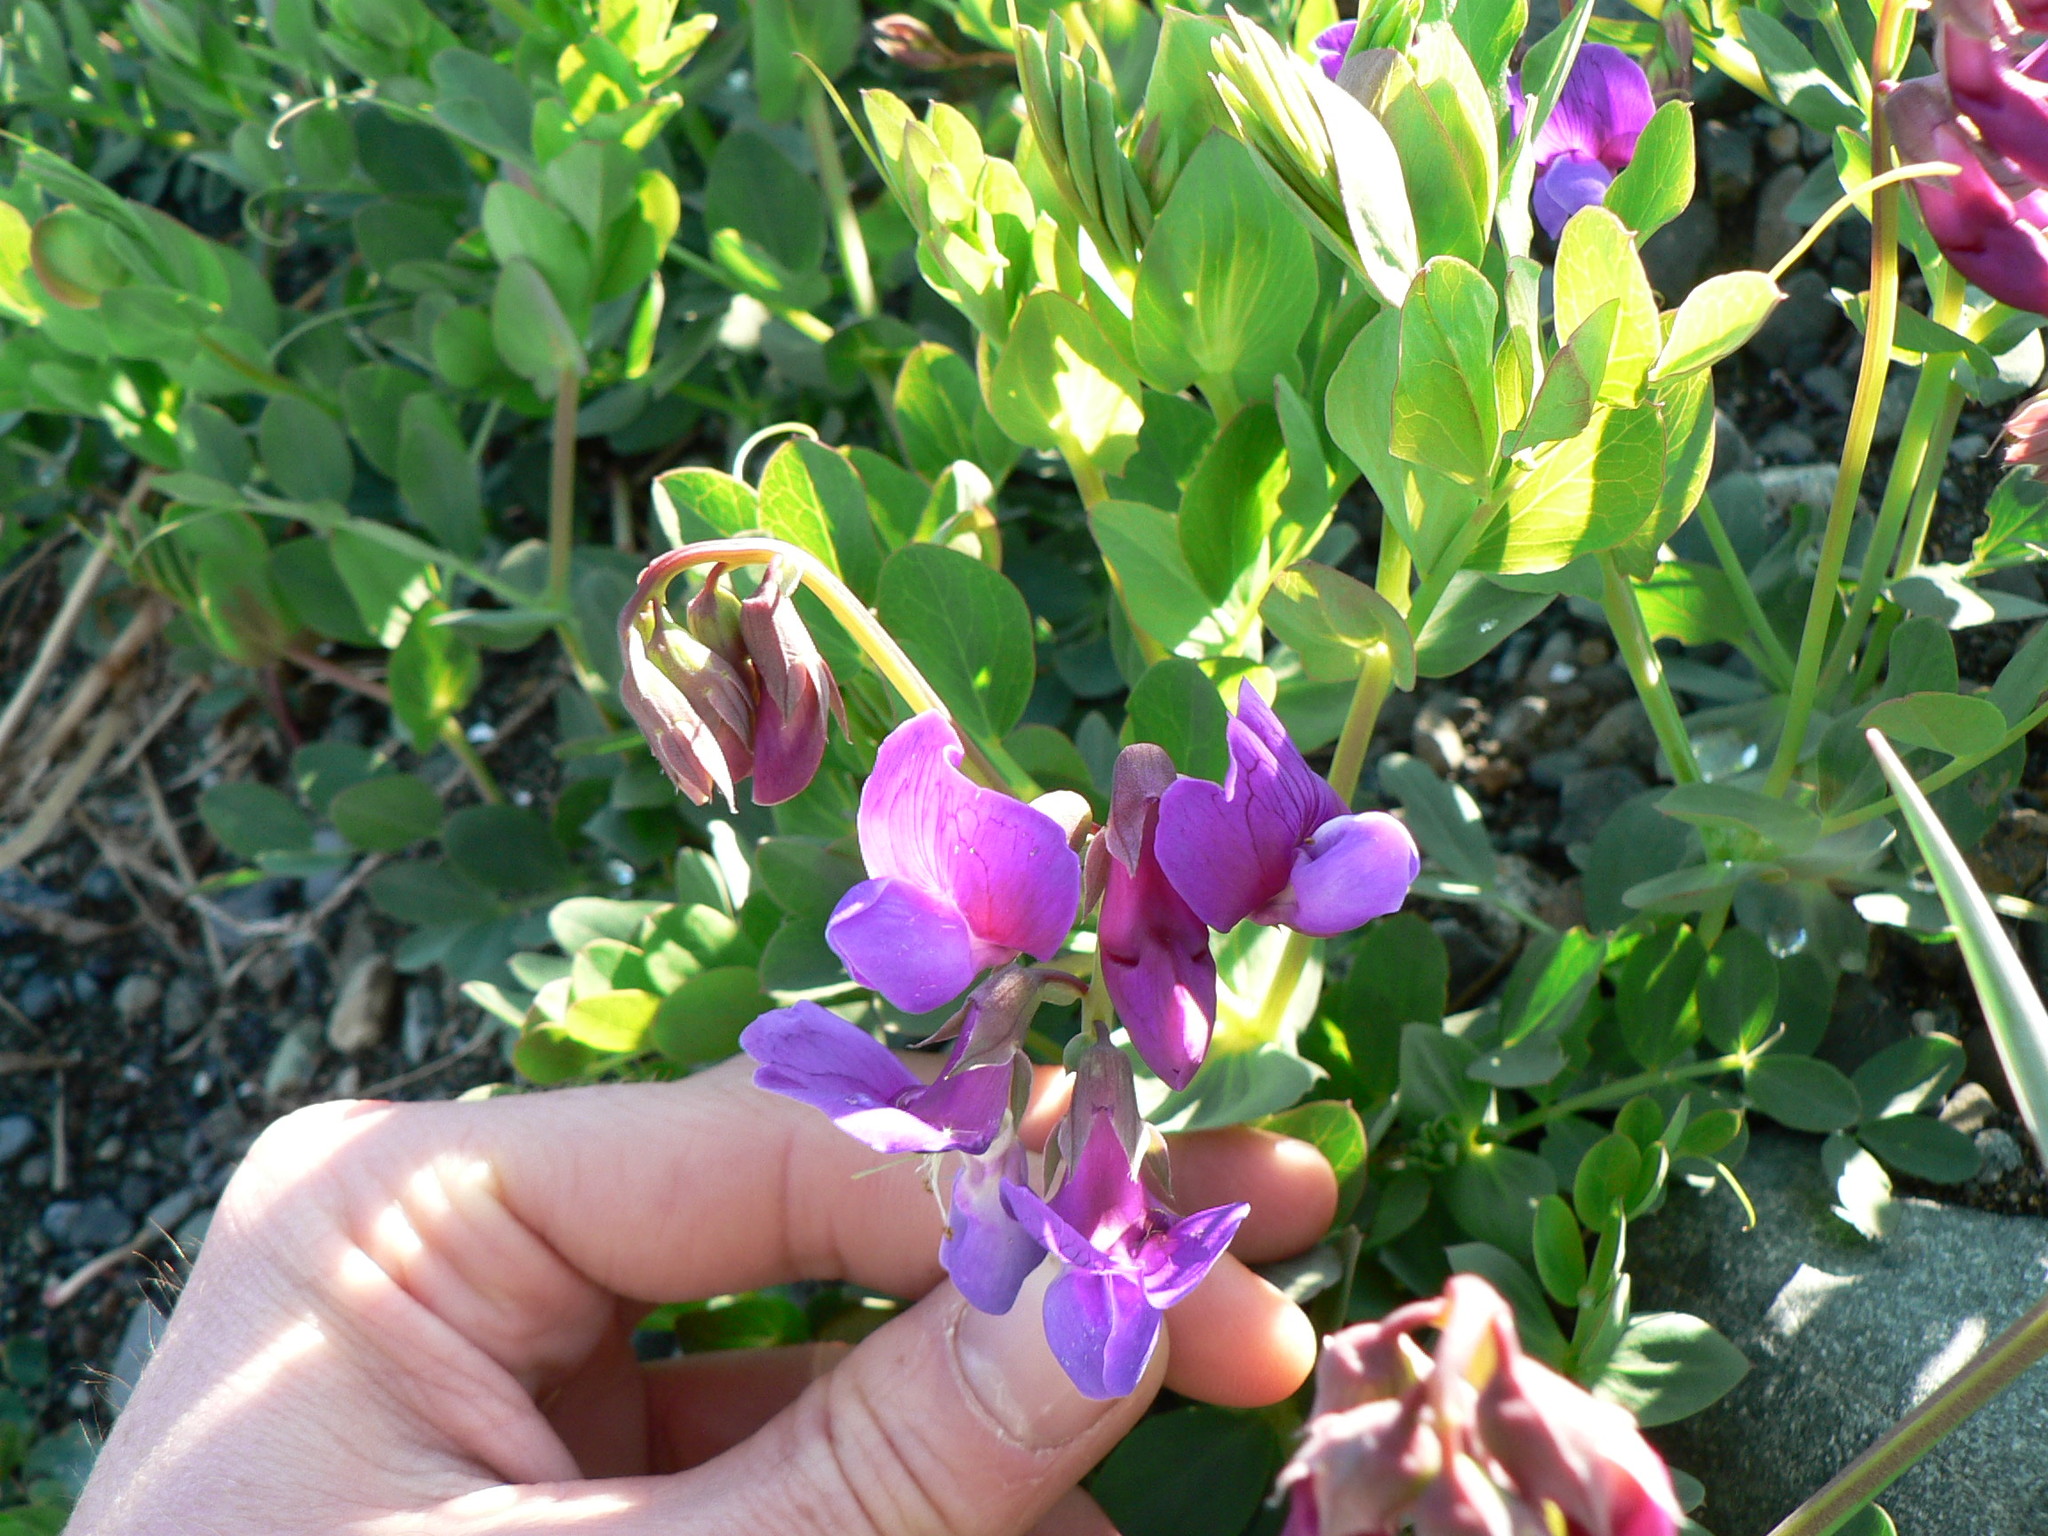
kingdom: Plantae
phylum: Tracheophyta
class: Magnoliopsida
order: Fabales
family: Fabaceae
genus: Lathyrus
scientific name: Lathyrus japonicus
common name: Sea pea
